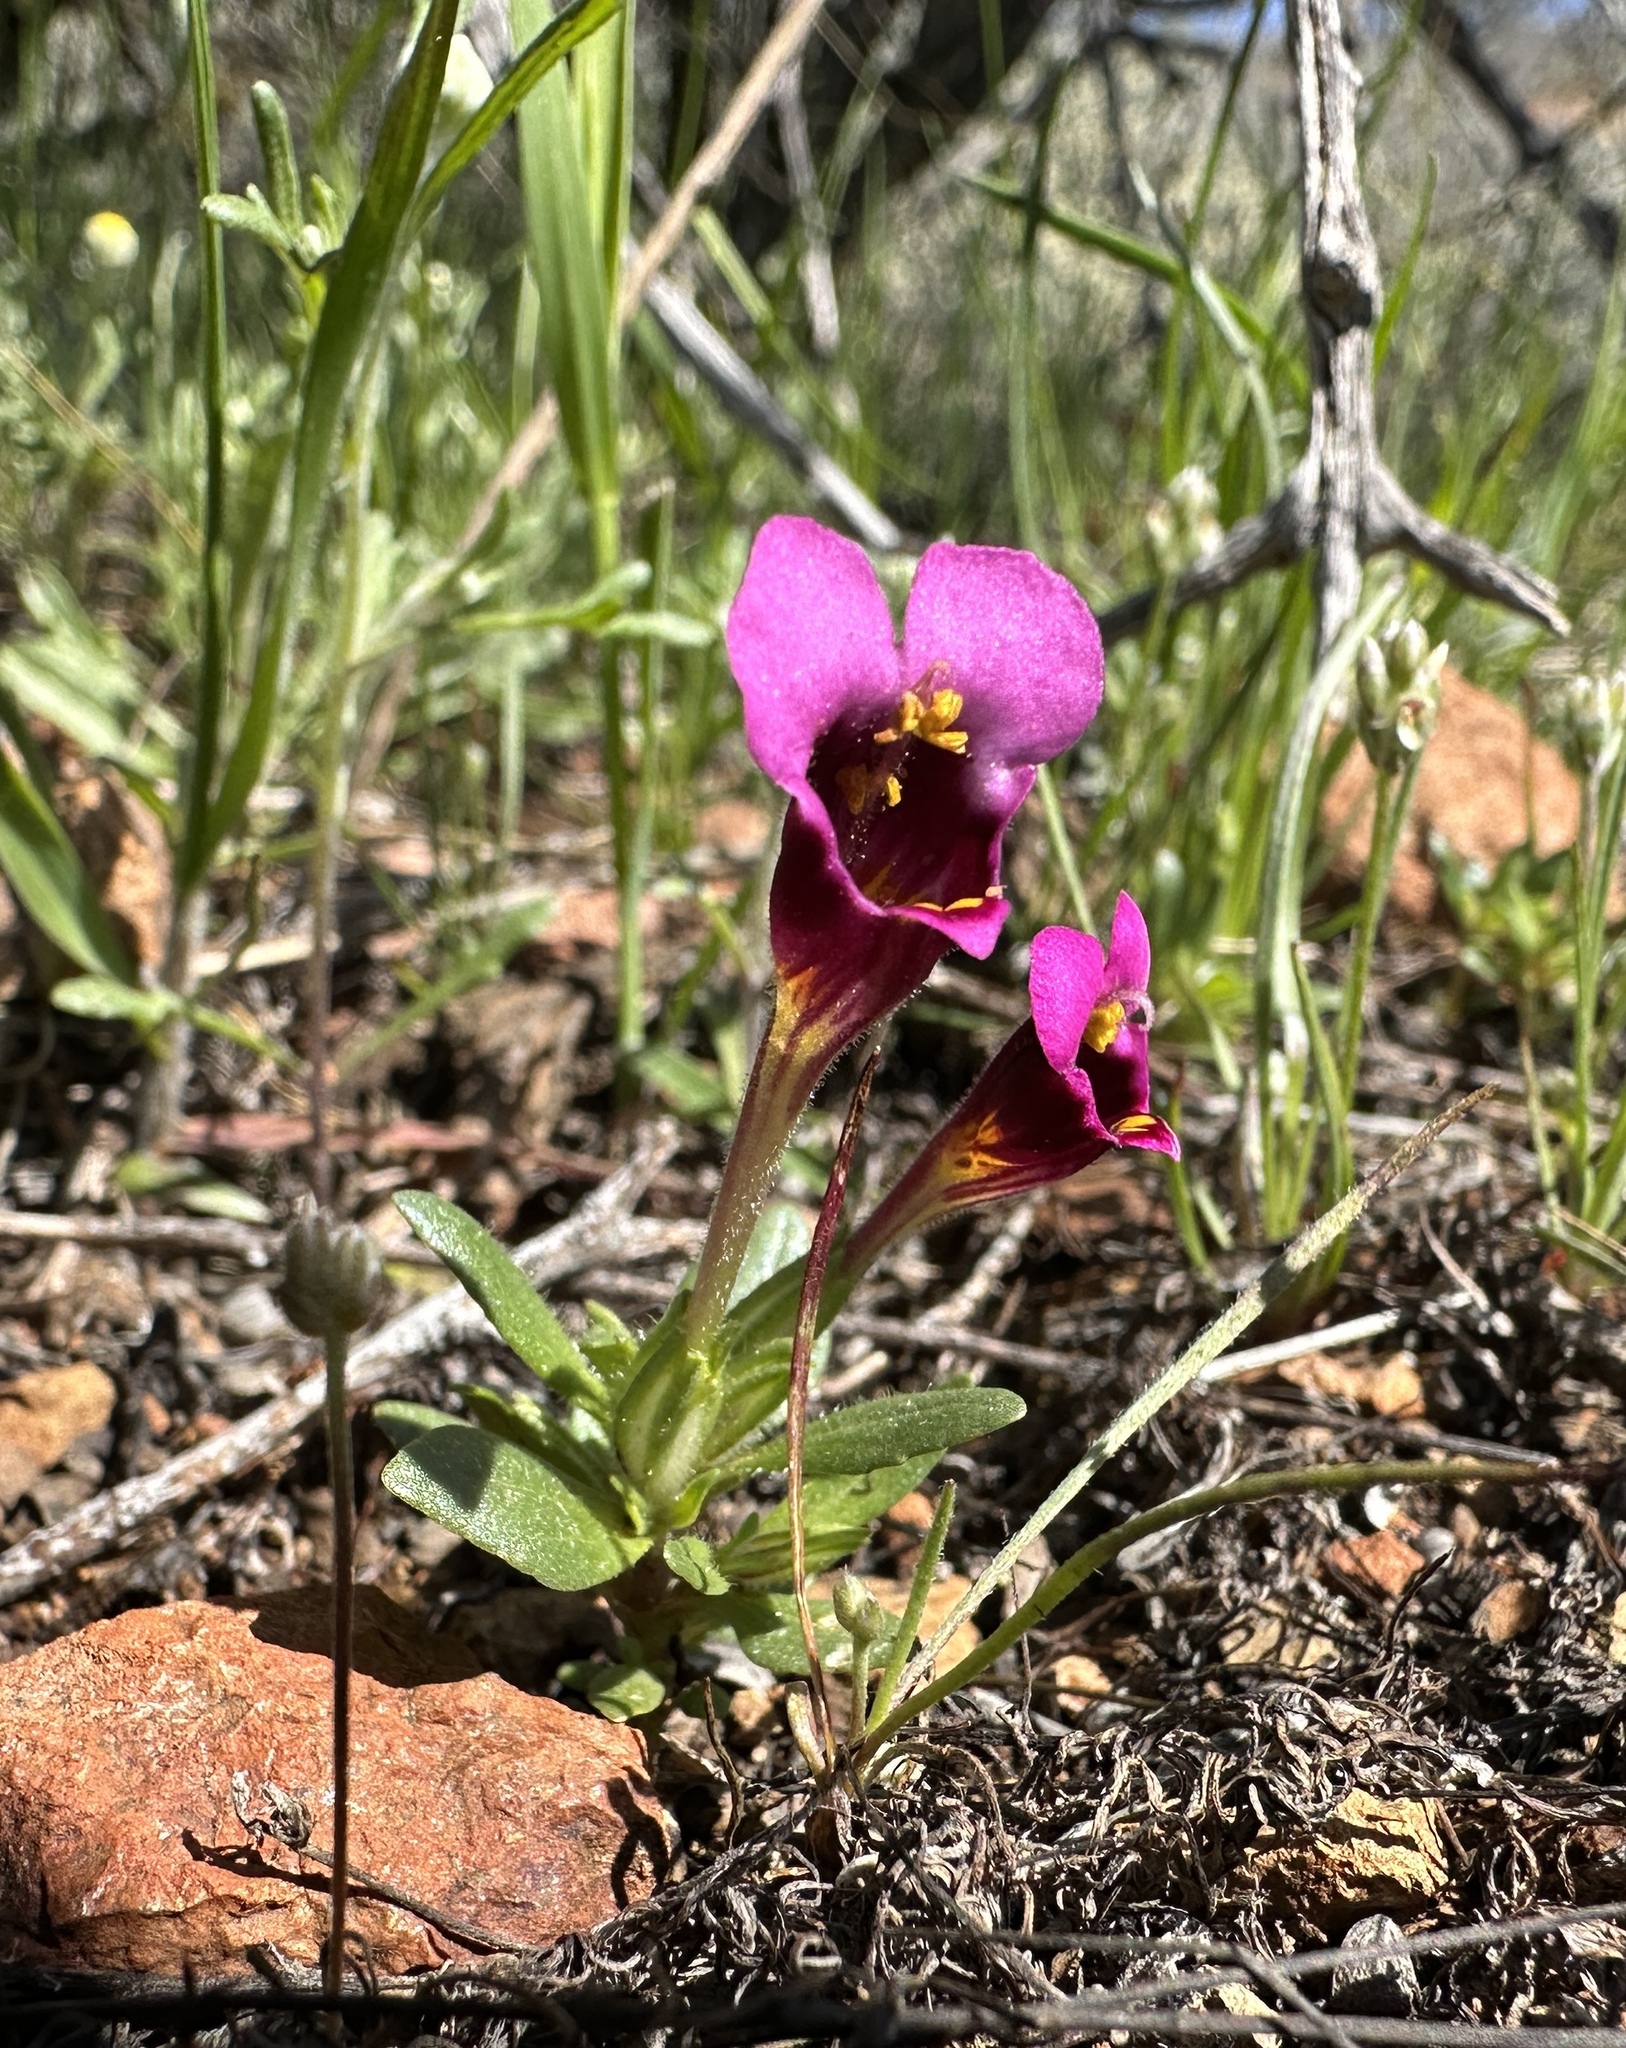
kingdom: Plantae
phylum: Tracheophyta
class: Magnoliopsida
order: Lamiales
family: Phrymaceae
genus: Diplacus
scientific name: Diplacus douglasii
